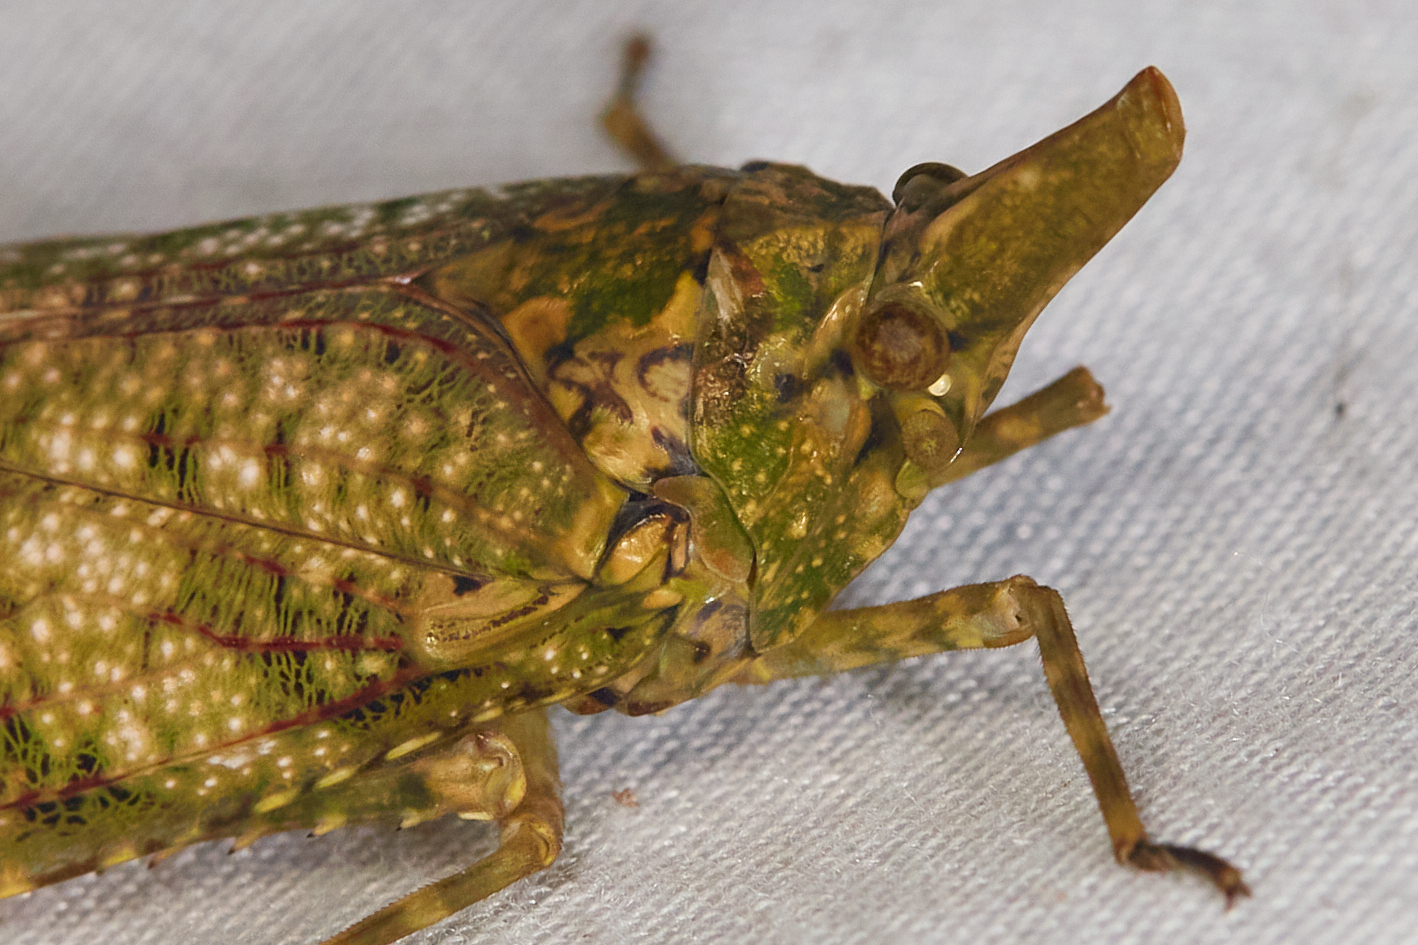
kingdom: Animalia
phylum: Arthropoda
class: Insecta
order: Hemiptera
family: Fulgoridae
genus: Diareusa
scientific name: Diareusa imitatrix
